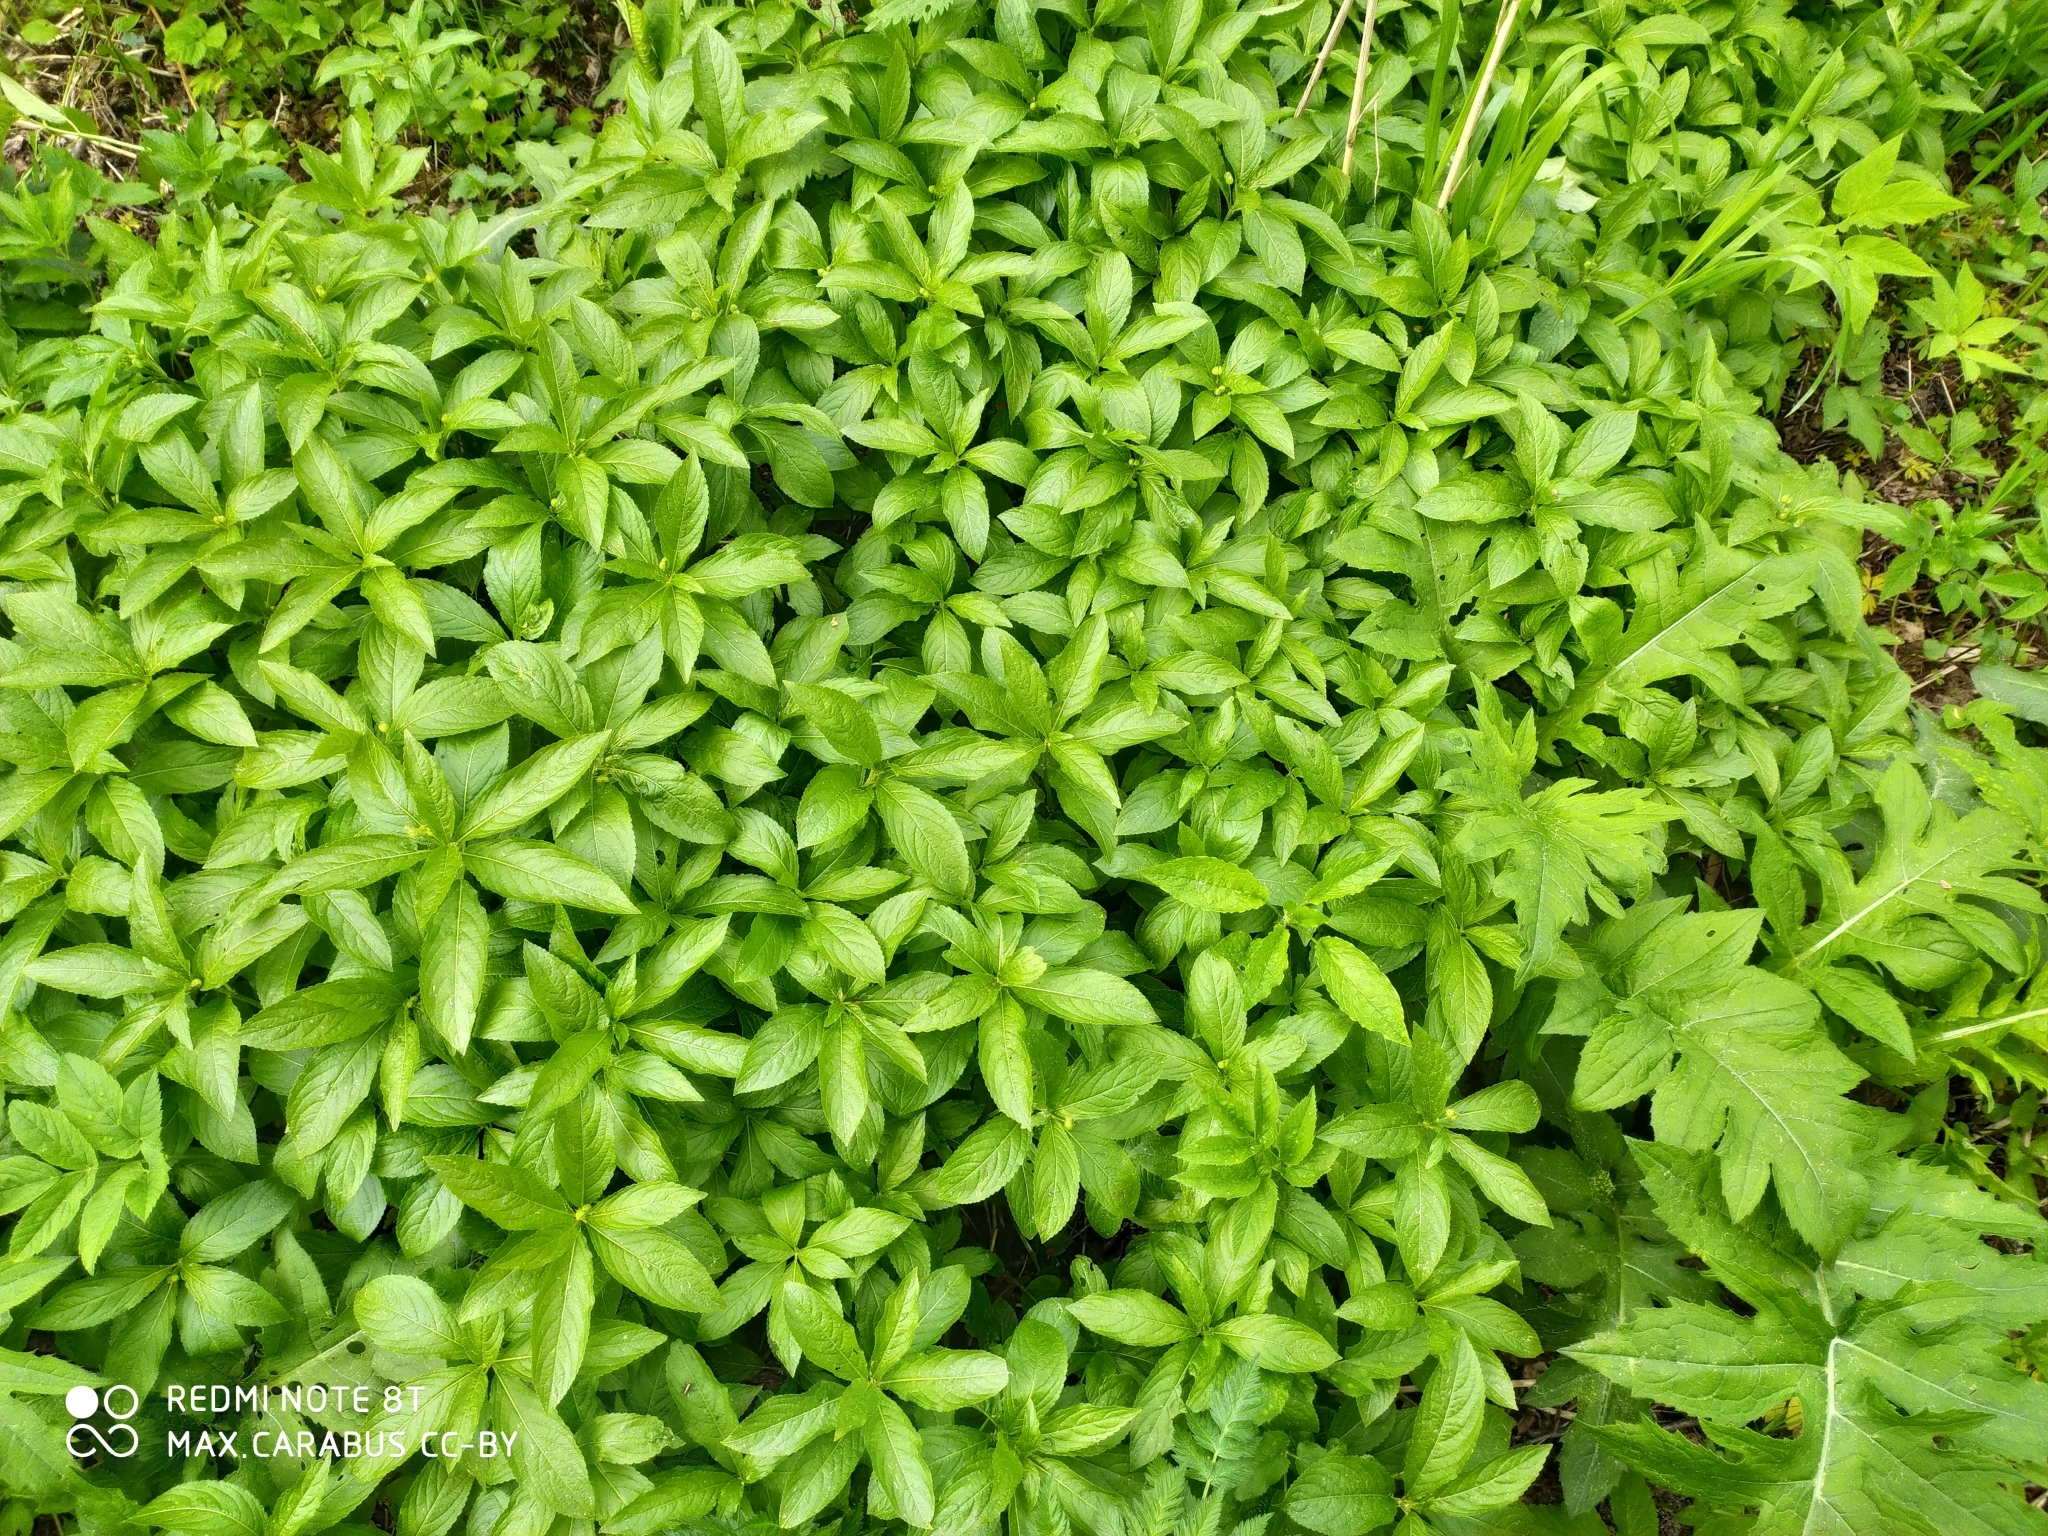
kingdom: Plantae
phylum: Tracheophyta
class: Magnoliopsida
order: Malpighiales
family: Euphorbiaceae
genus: Mercurialis
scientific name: Mercurialis perennis
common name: Dog mercury
